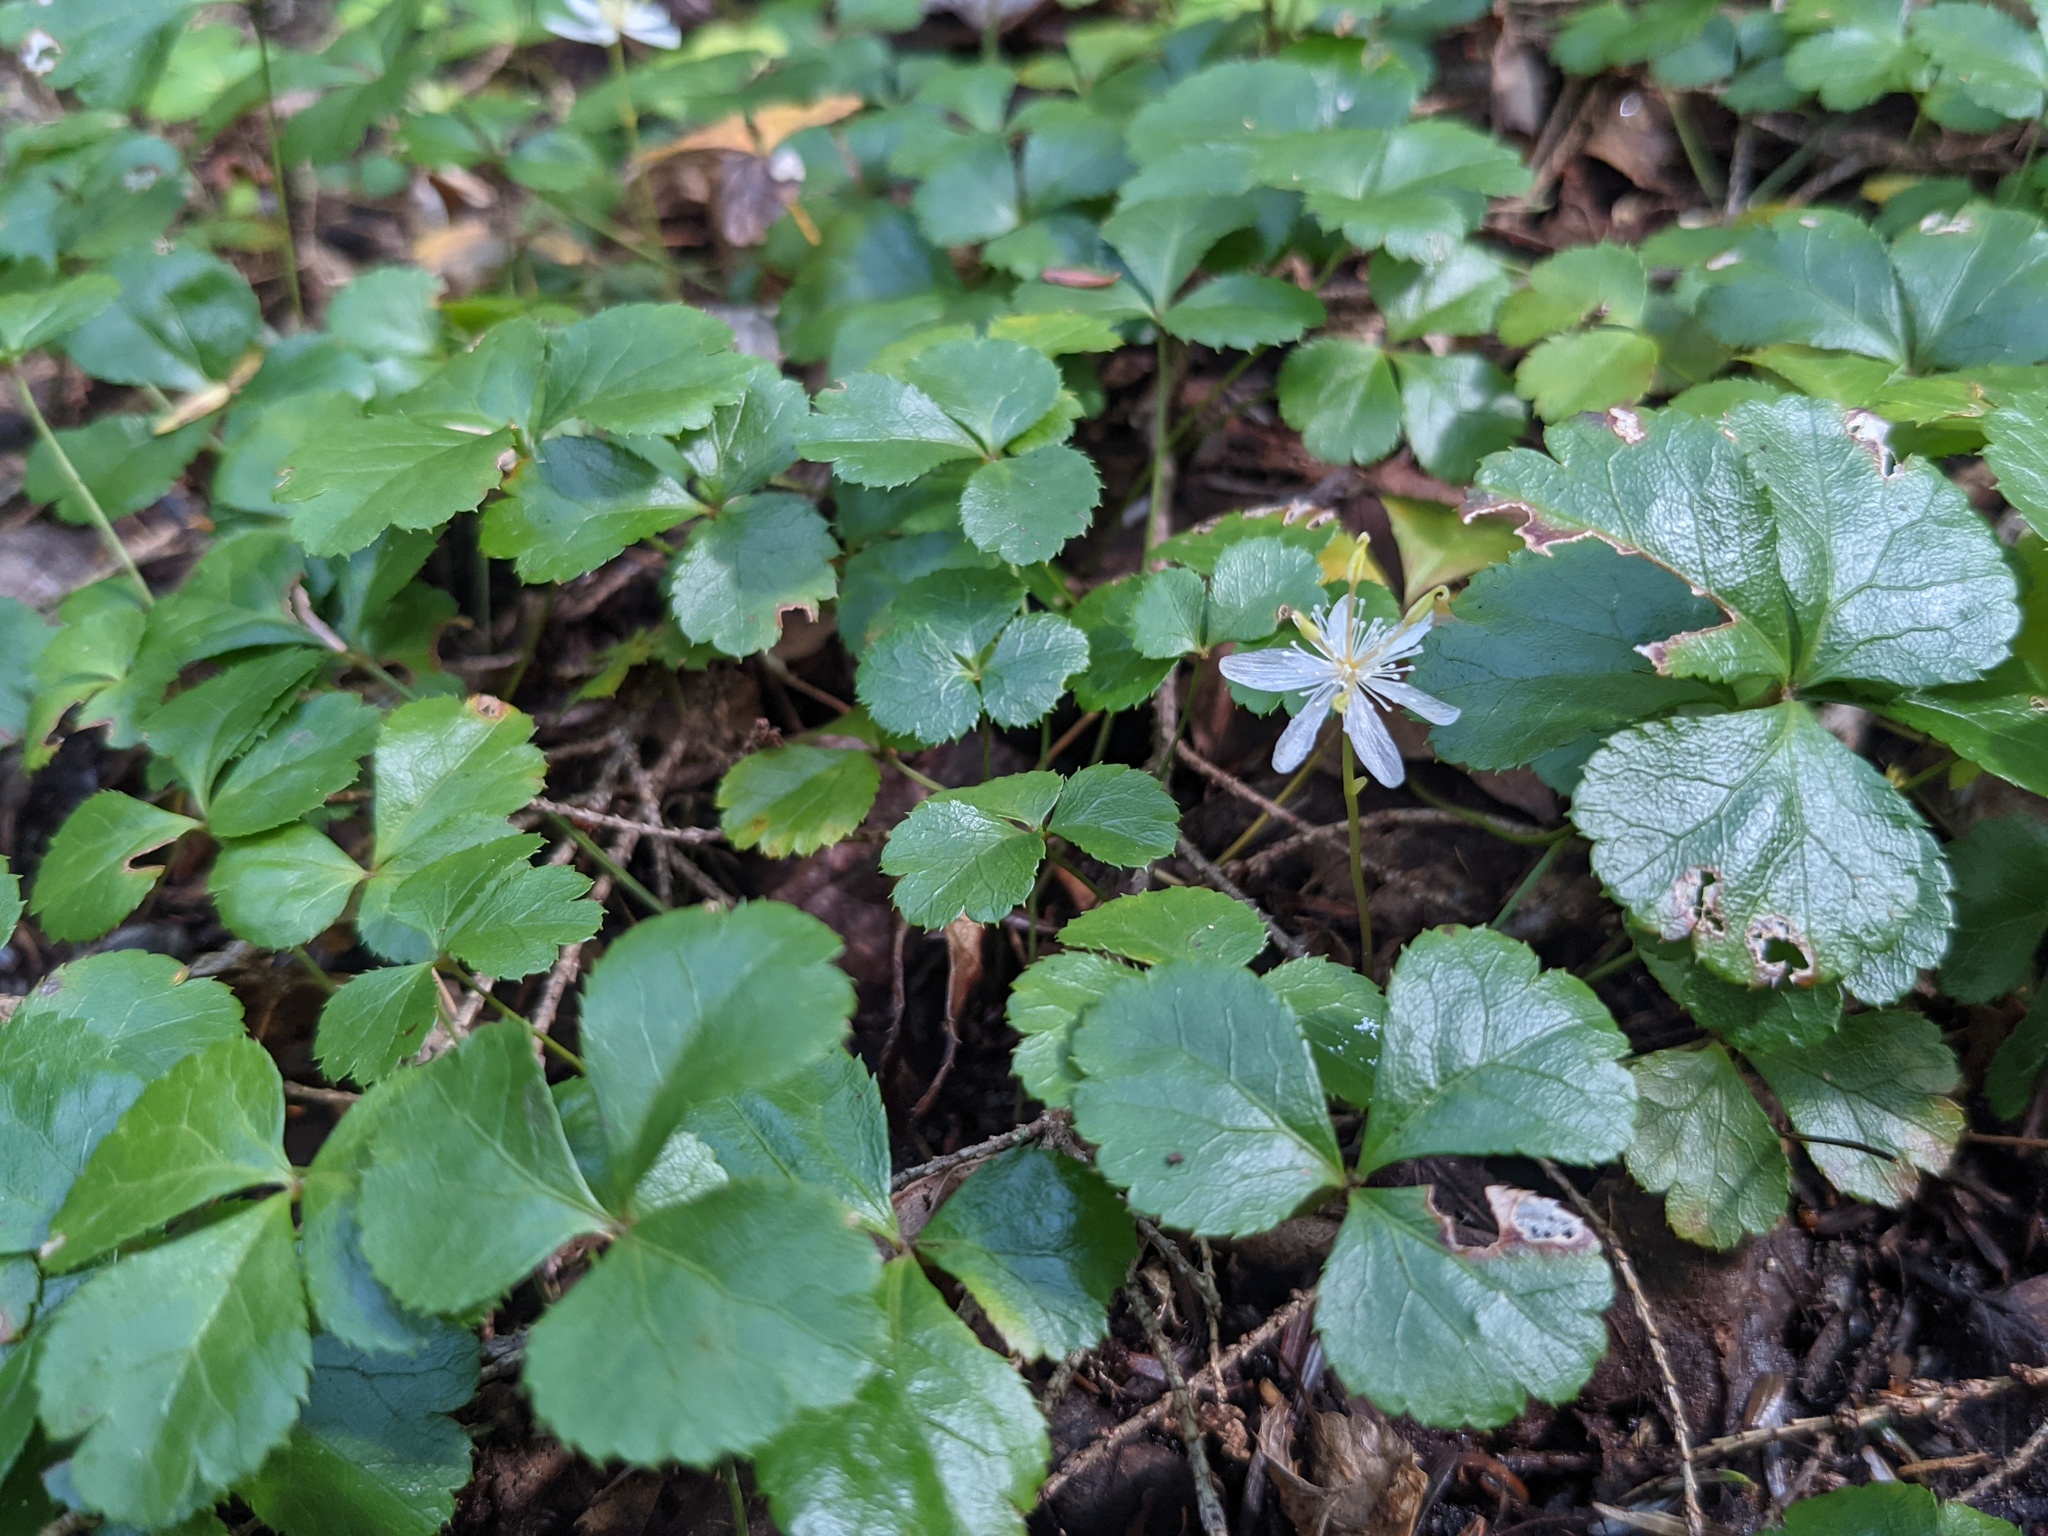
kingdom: Plantae
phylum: Tracheophyta
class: Magnoliopsida
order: Ranunculales
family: Ranunculaceae
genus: Coptis
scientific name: Coptis trifolia
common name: Canker-root
